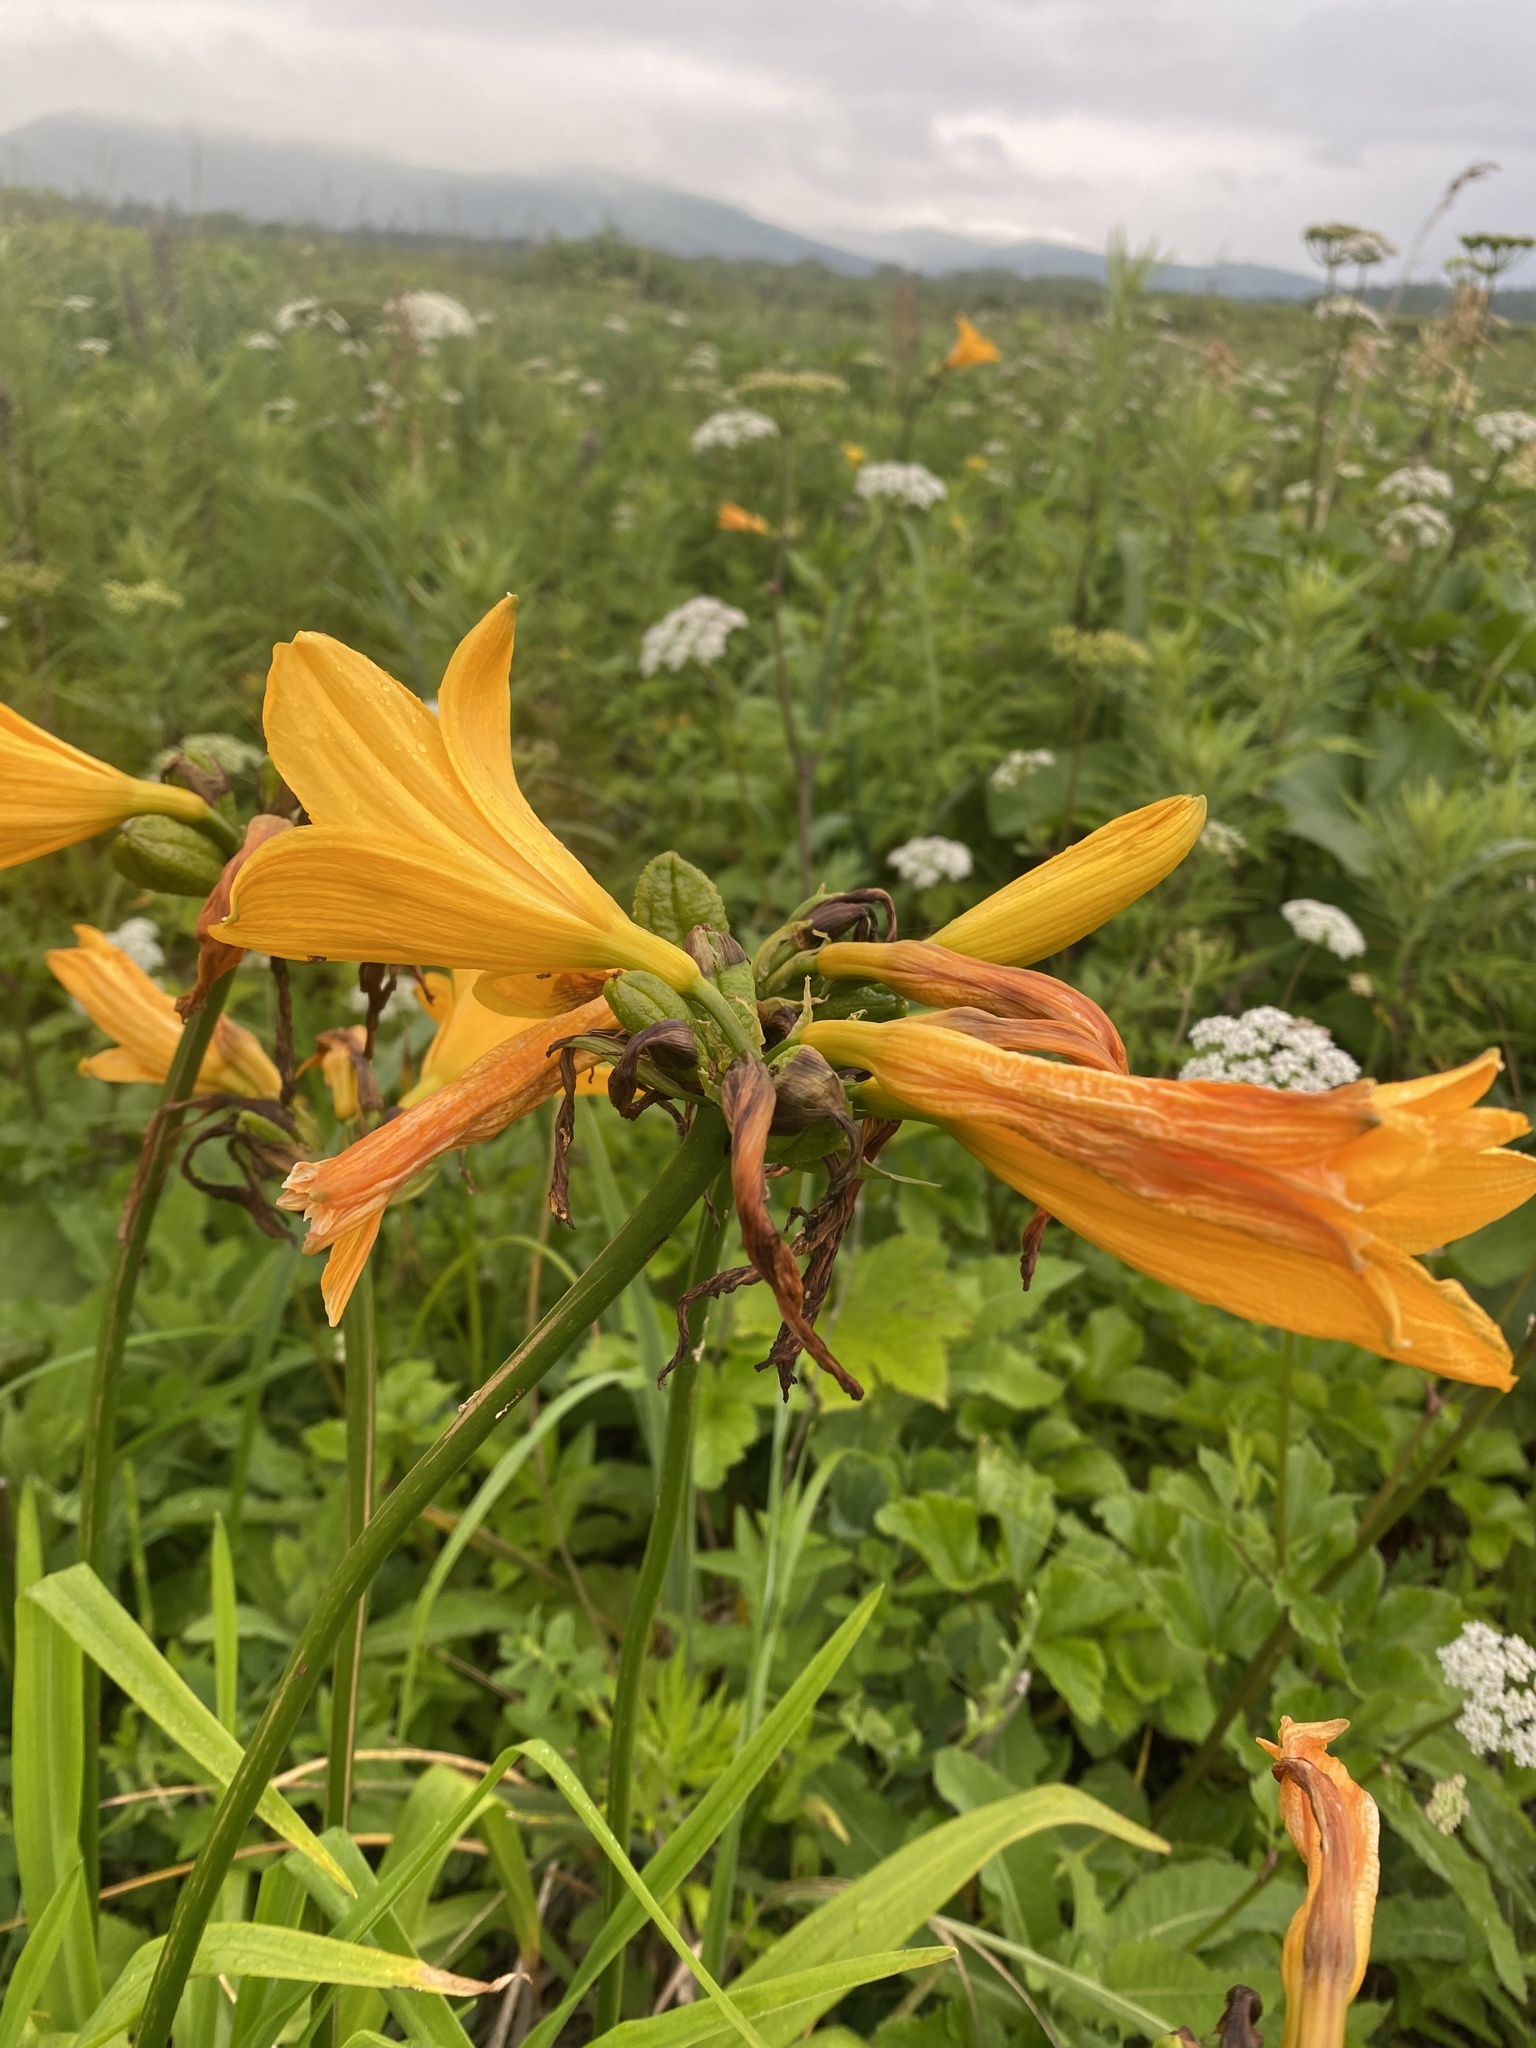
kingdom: Plantae
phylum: Tracheophyta
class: Liliopsida
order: Asparagales
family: Asphodelaceae
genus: Hemerocallis
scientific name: Hemerocallis middendorffii
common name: Amur day-lily
